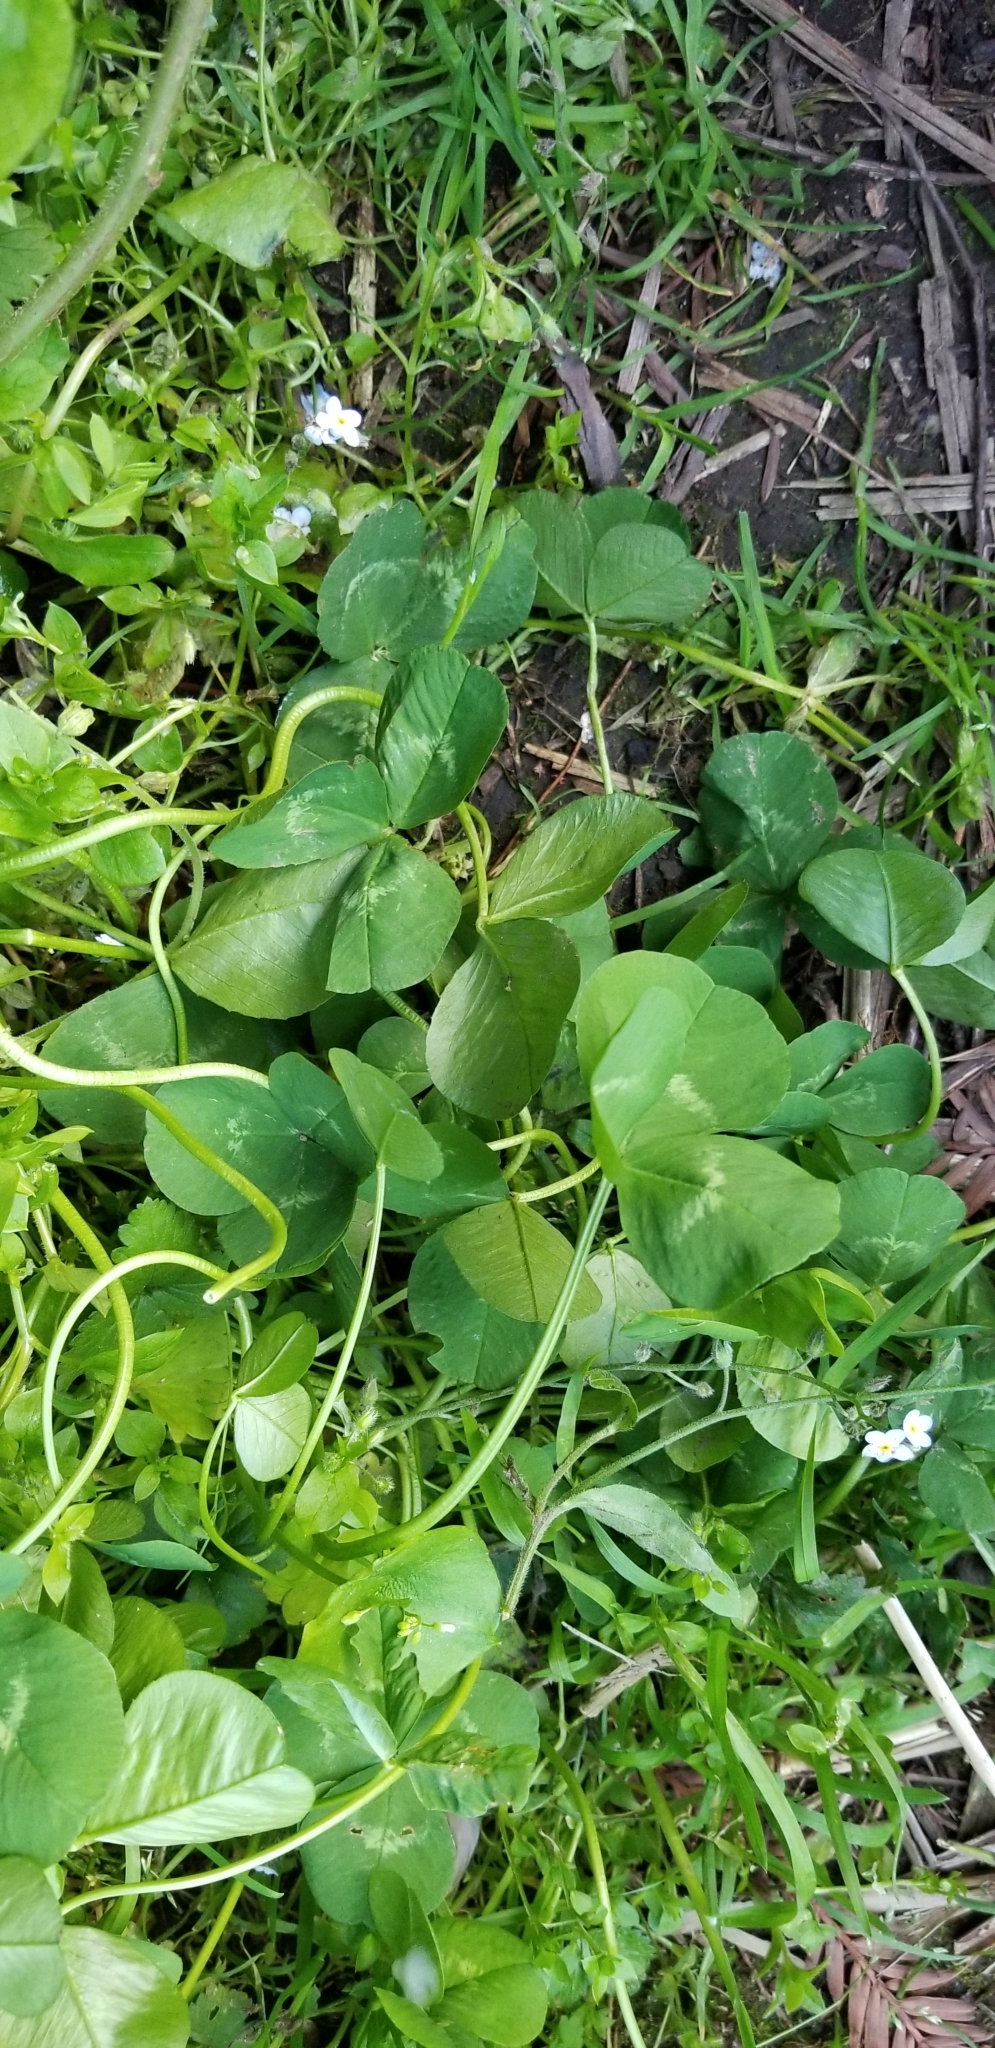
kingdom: Plantae
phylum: Tracheophyta
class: Magnoliopsida
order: Fabales
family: Fabaceae
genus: Trifolium
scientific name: Trifolium repens
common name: White clover
